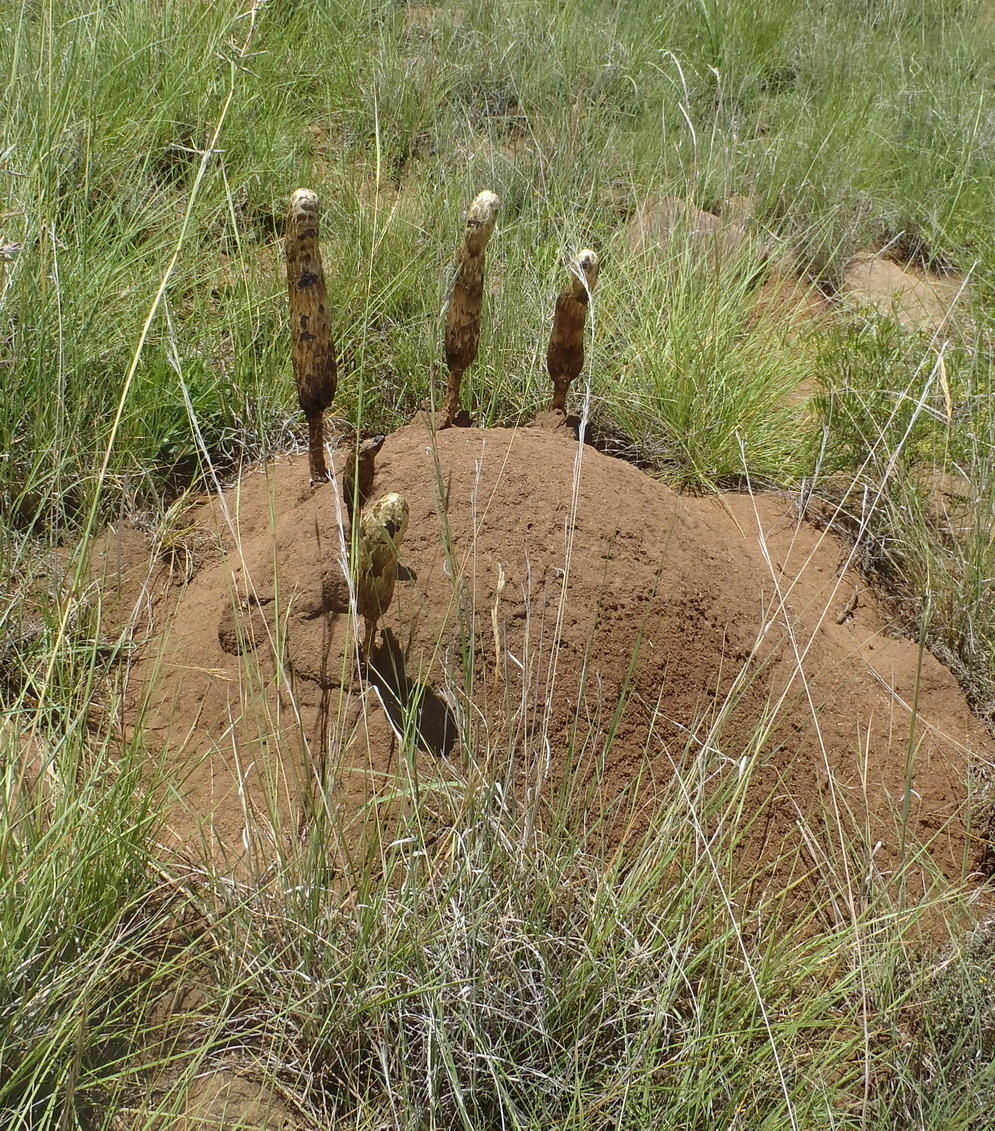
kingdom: Fungi
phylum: Basidiomycota
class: Agaricomycetes
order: Agaricales
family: Agaricaceae
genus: Podaxis
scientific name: Podaxis pistillaris
